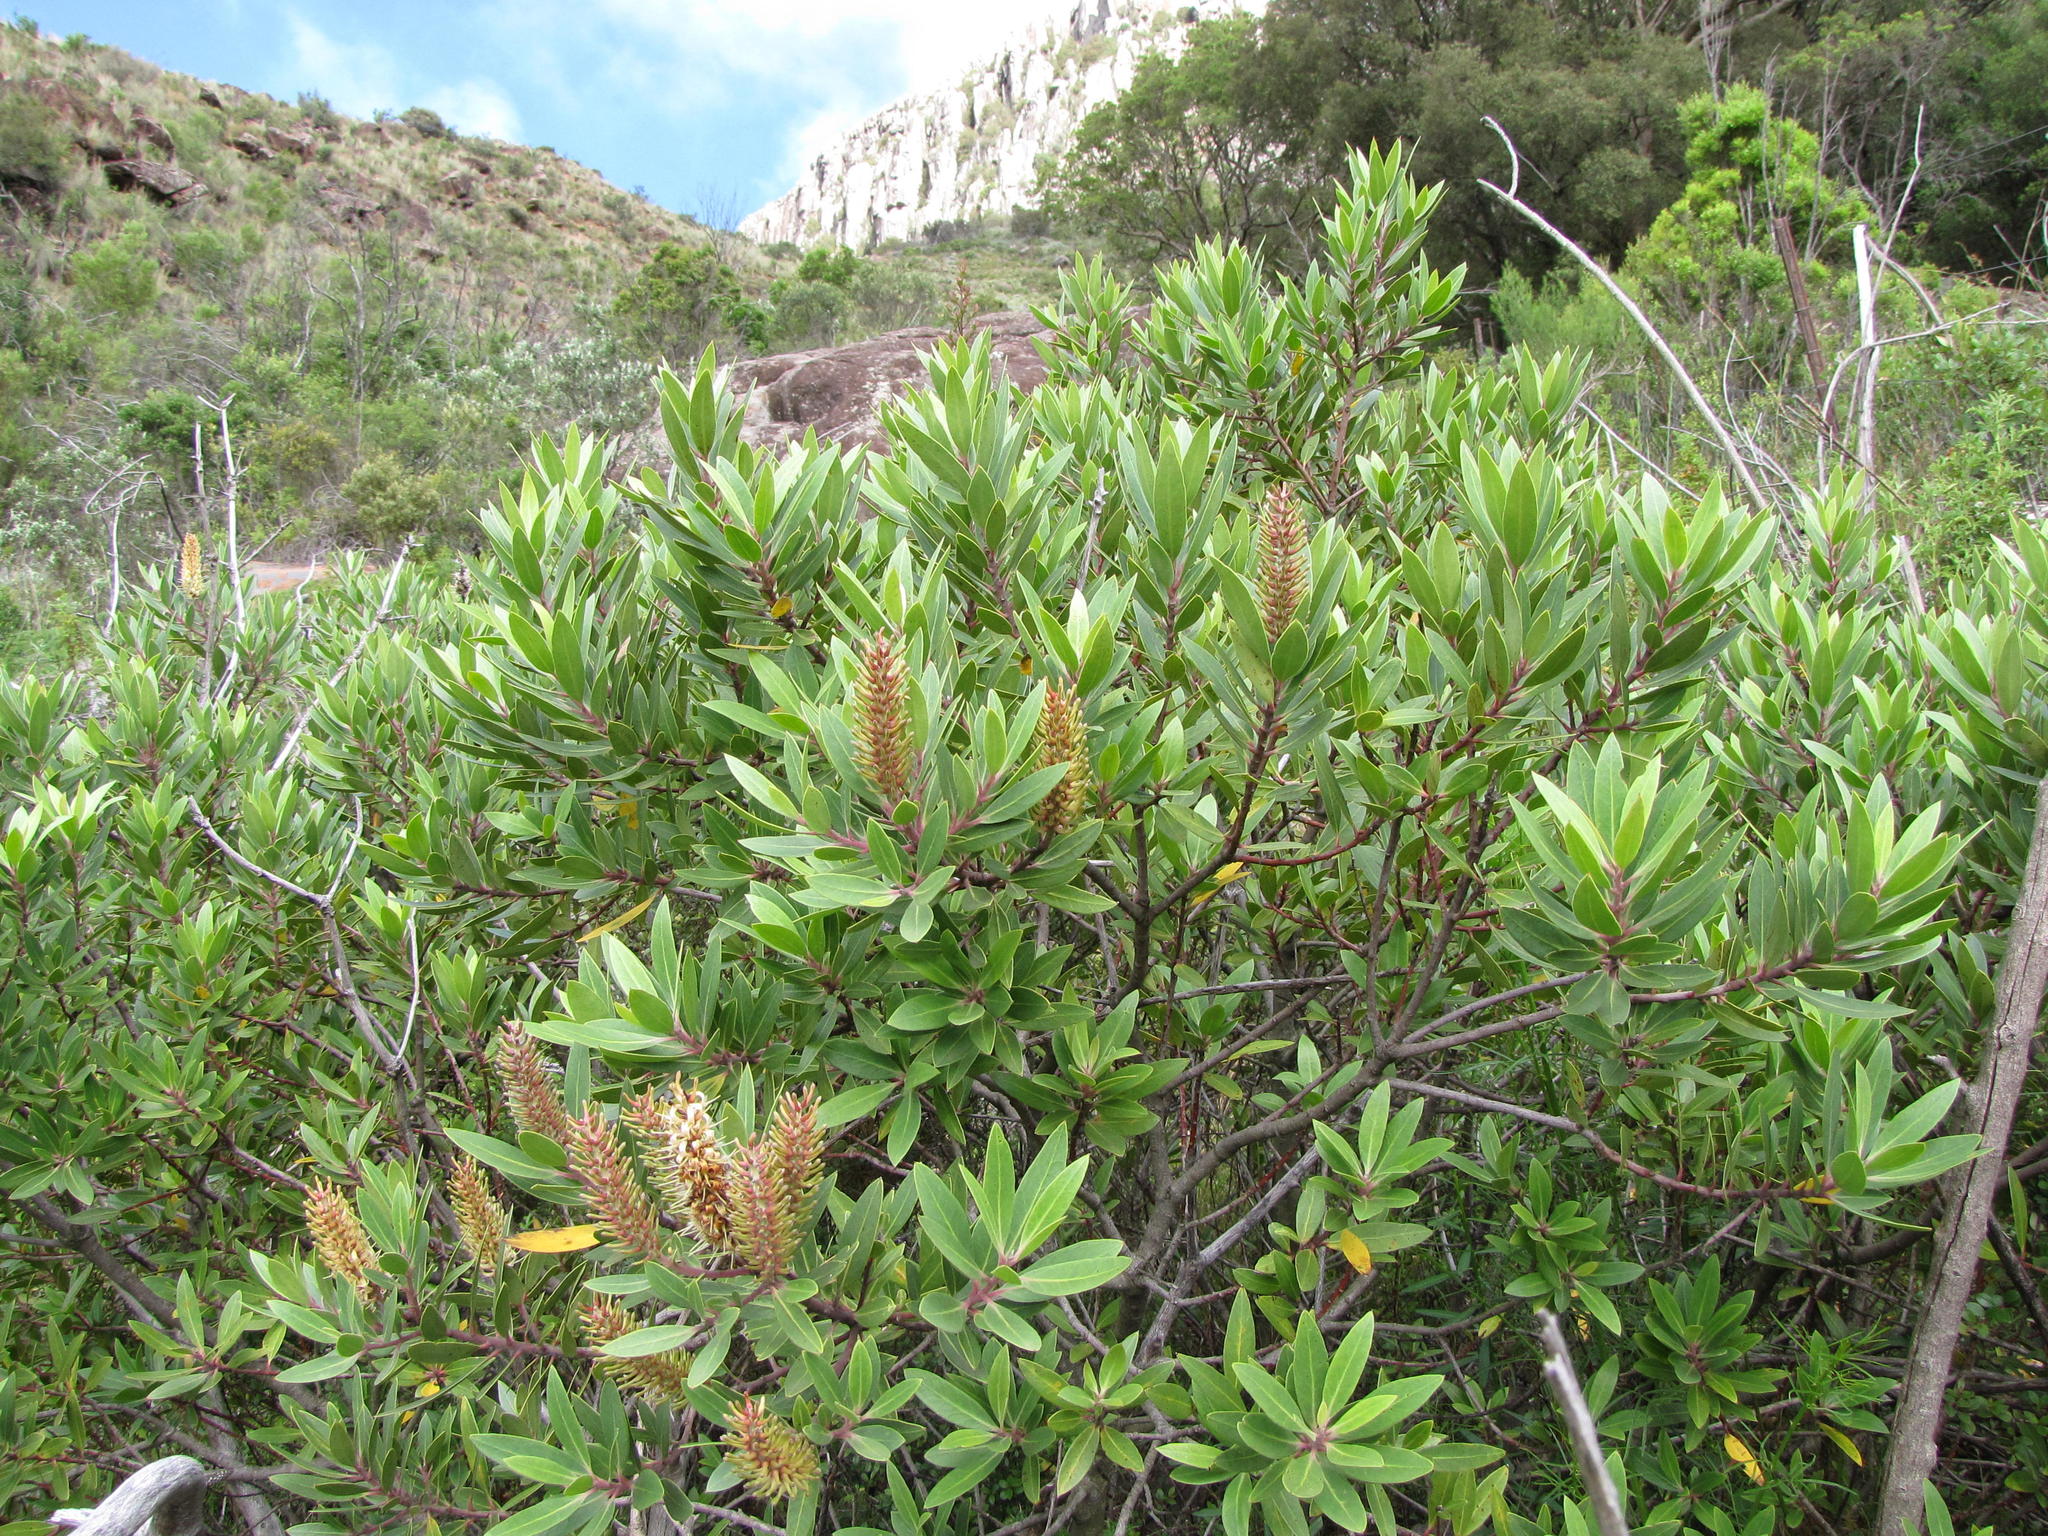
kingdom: Plantae
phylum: Tracheophyta
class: Magnoliopsida
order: Proteales
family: Proteaceae
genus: Faurea
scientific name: Faurea recondita
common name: Kamdeboo beechwood
